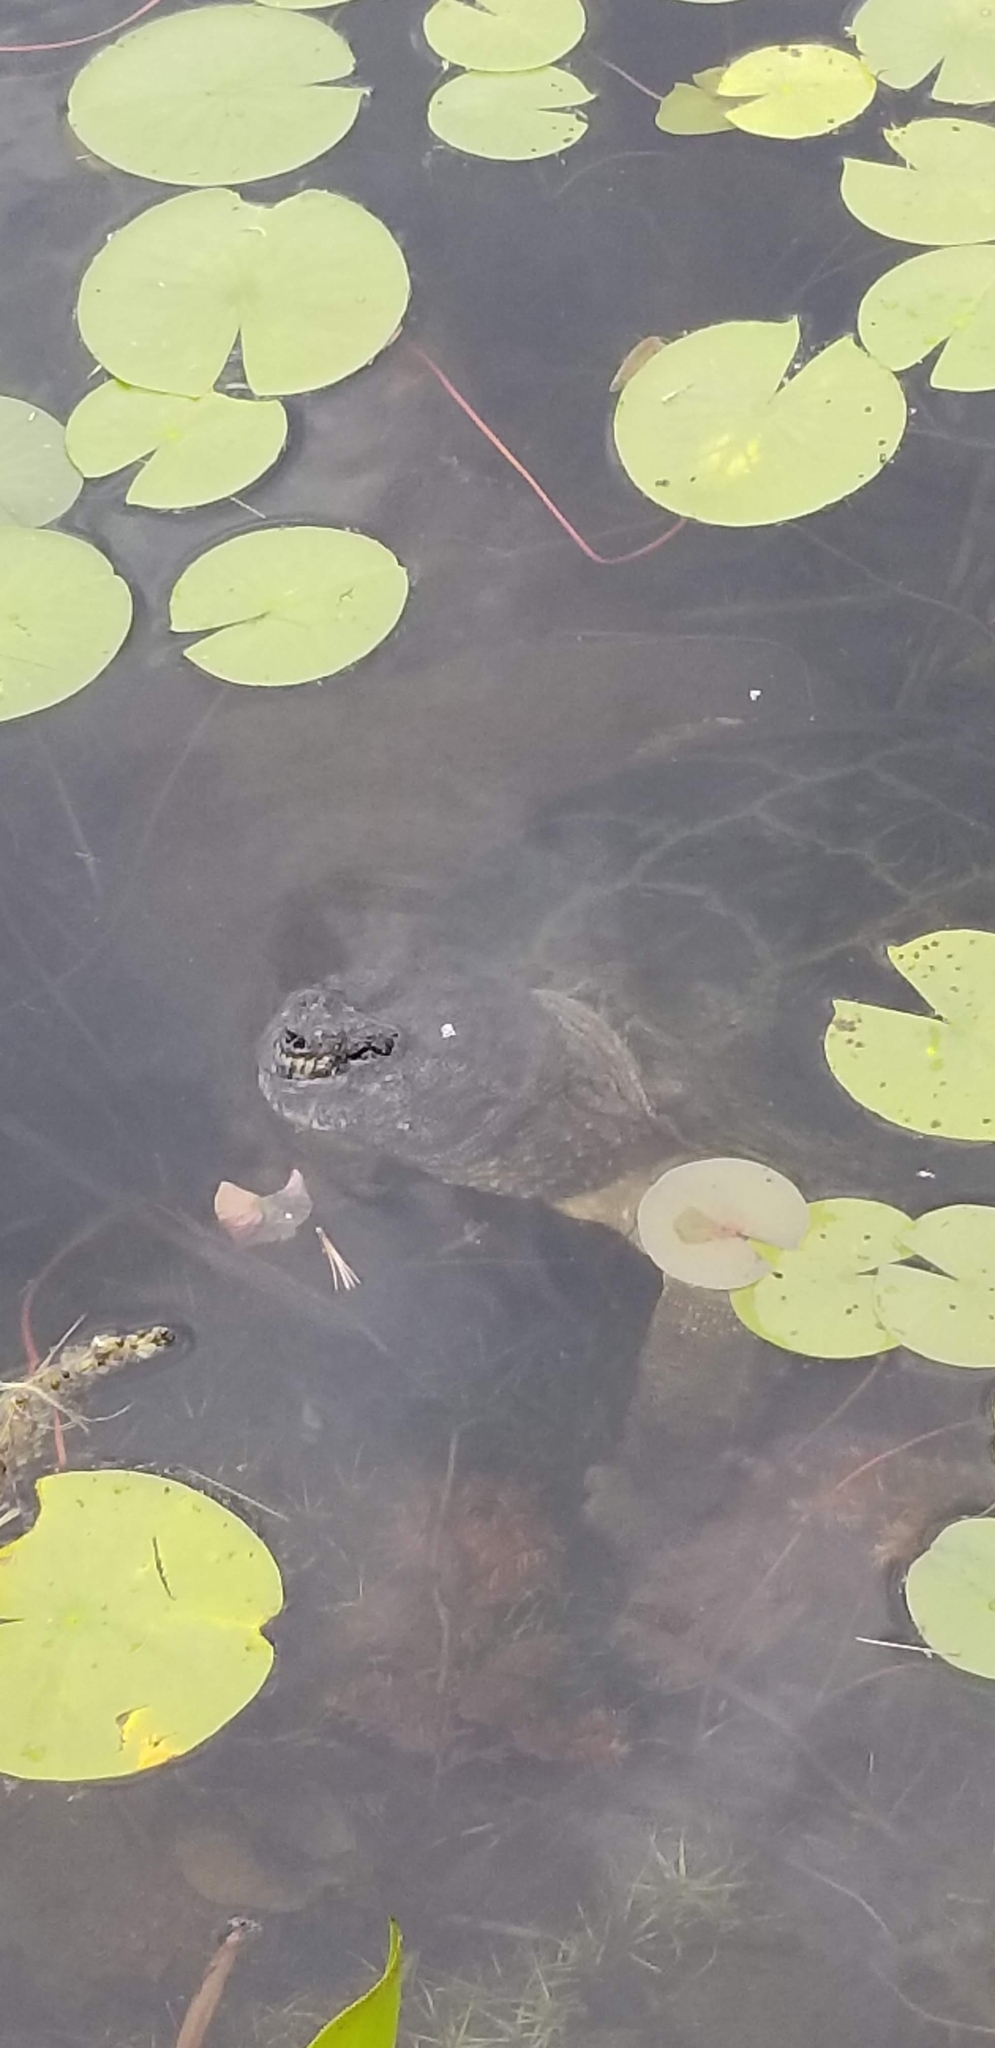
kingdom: Animalia
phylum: Chordata
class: Testudines
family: Chelydridae
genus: Chelydra
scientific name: Chelydra serpentina
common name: Common snapping turtle
